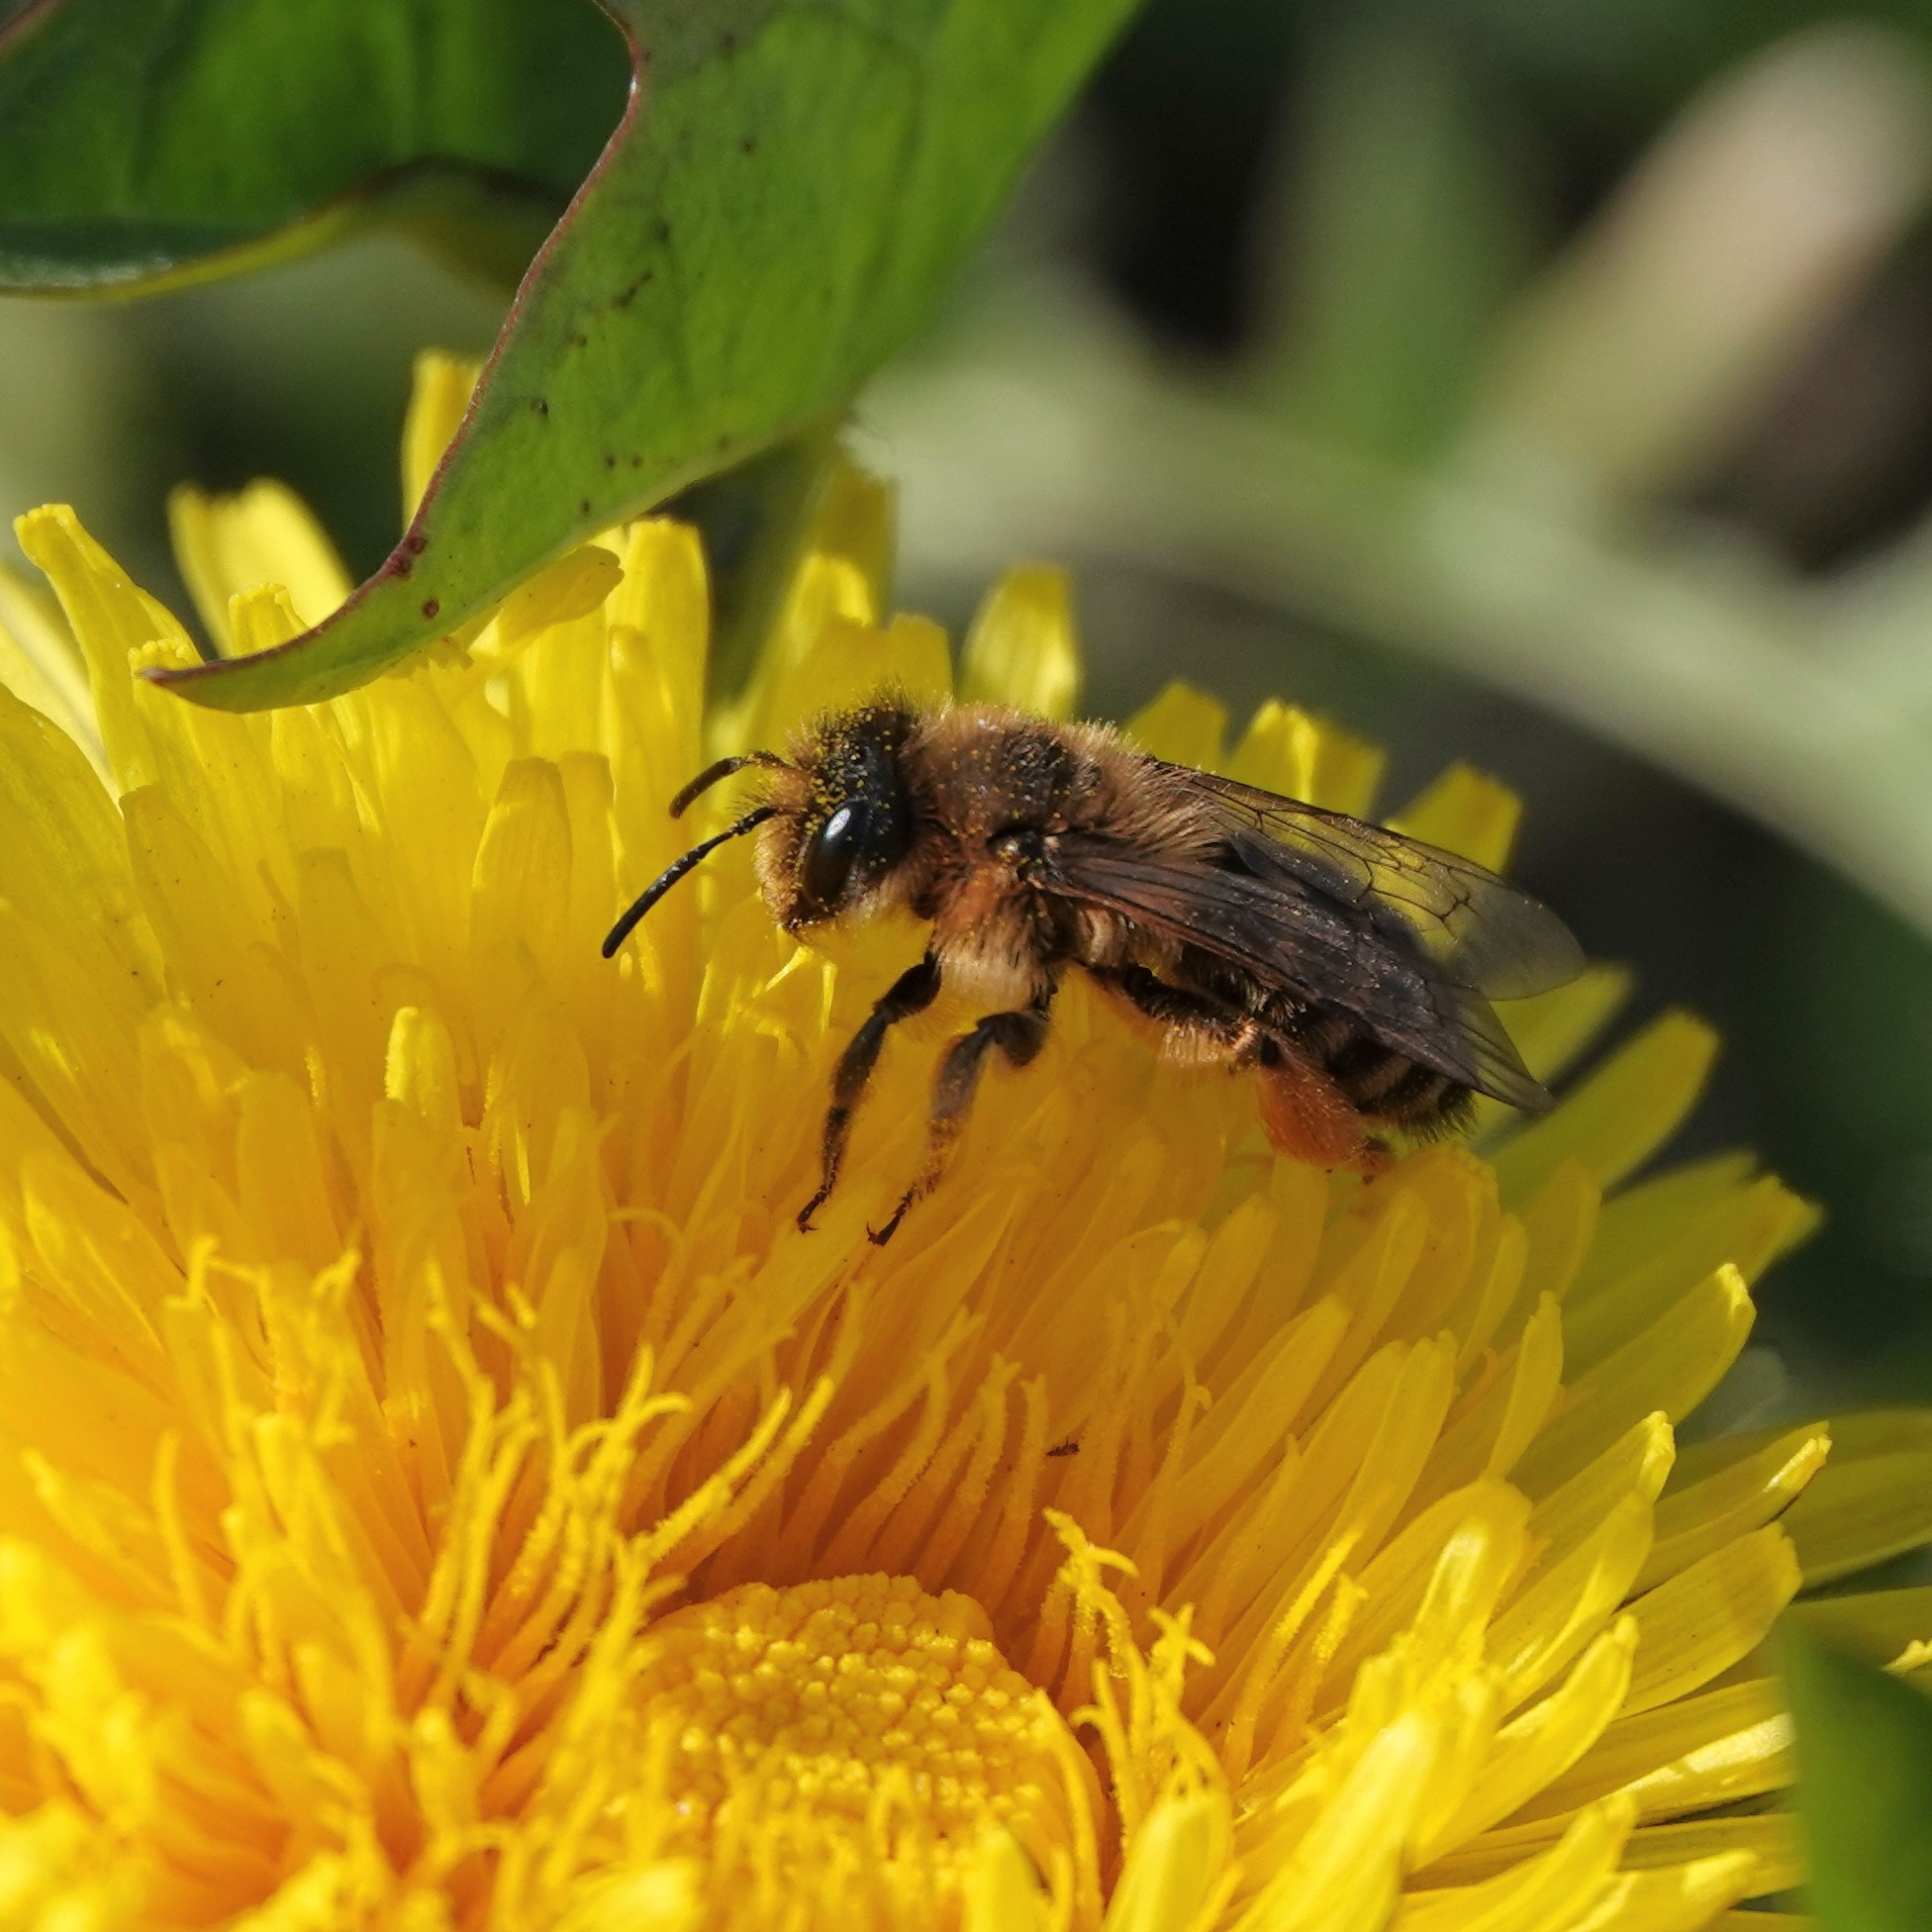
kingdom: Animalia
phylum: Arthropoda
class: Insecta
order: Hymenoptera
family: Andrenidae
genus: Andrena
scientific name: Andrena flavipes
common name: Yellow-legged mining bee
